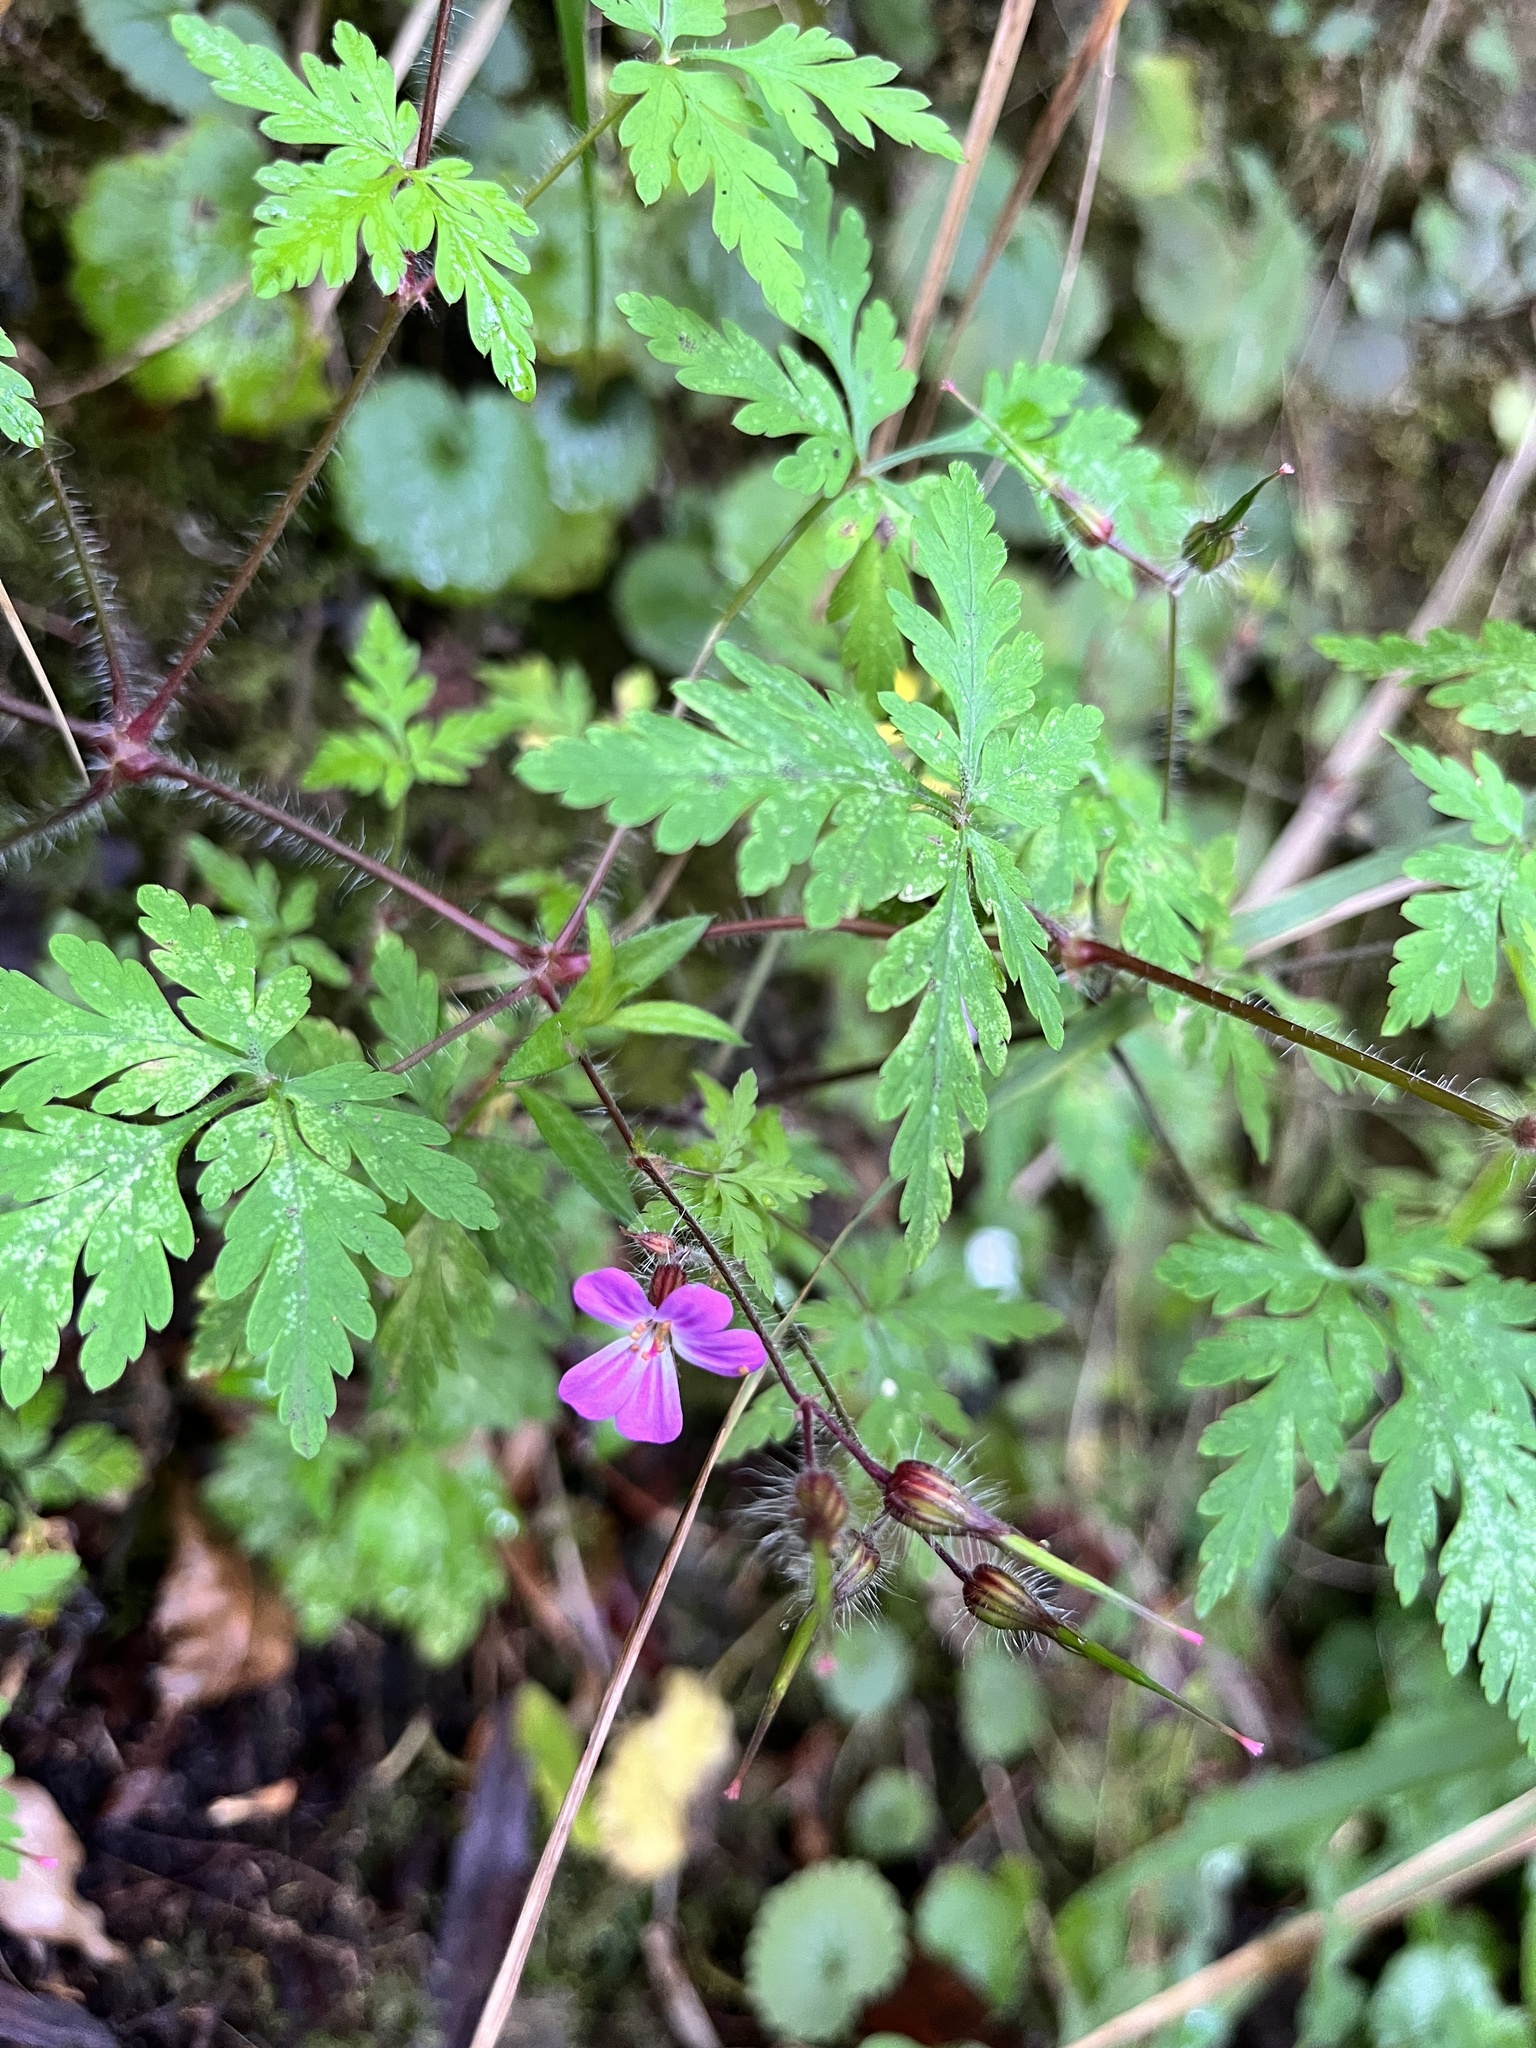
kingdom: Plantae
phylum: Tracheophyta
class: Magnoliopsida
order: Geraniales
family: Geraniaceae
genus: Geranium
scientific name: Geranium robertianum
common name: Herb-robert
